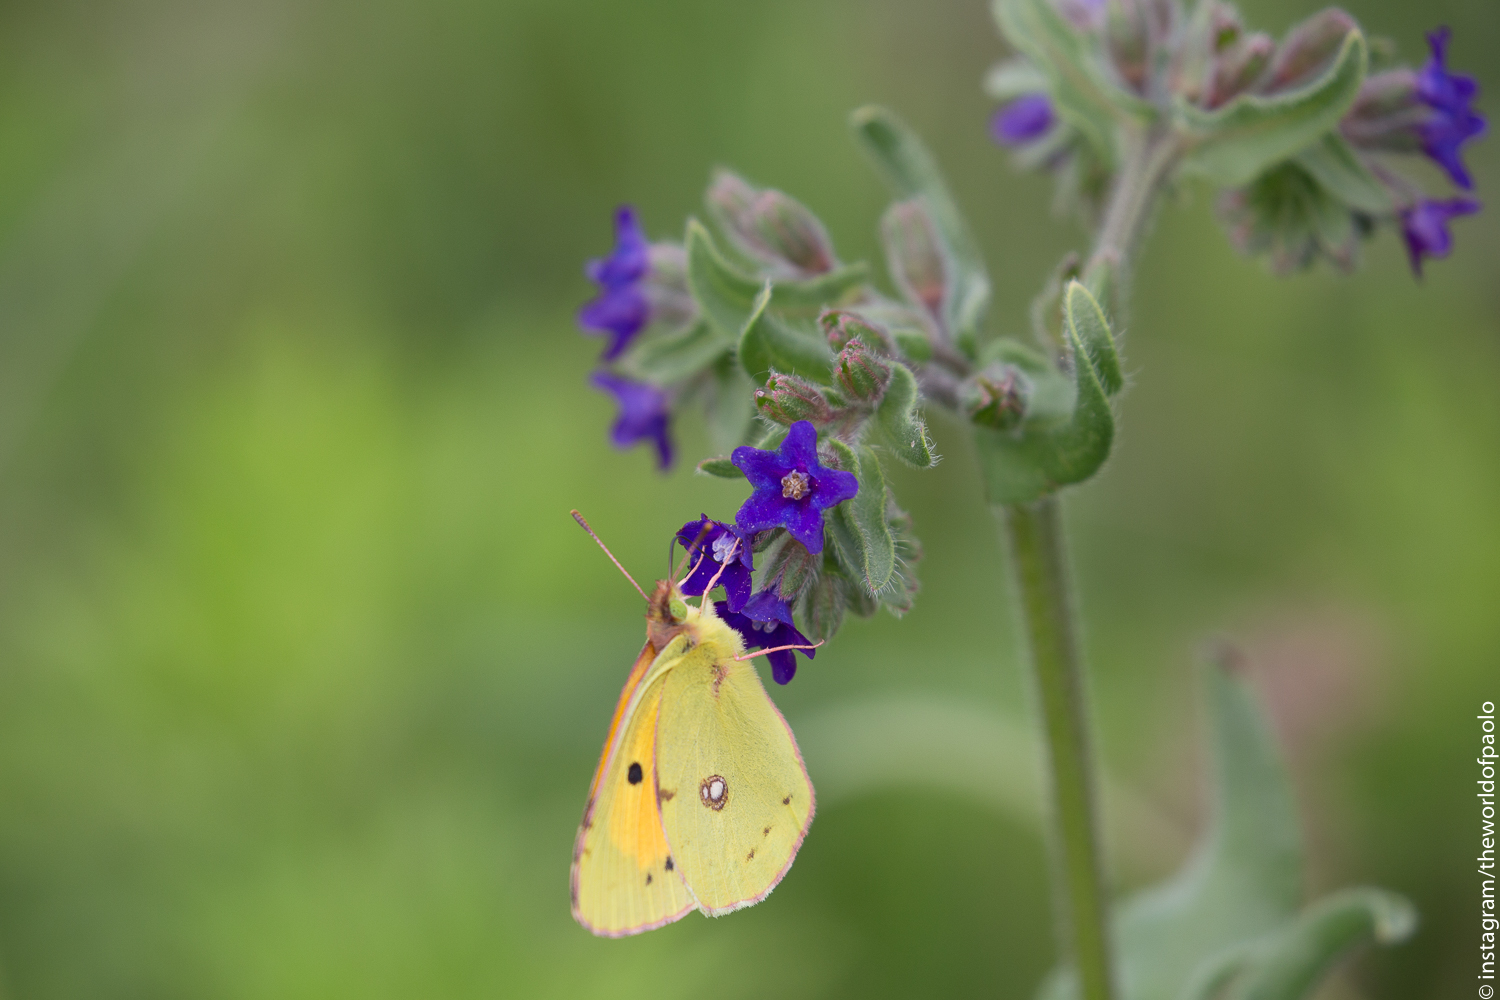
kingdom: Animalia
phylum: Arthropoda
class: Insecta
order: Lepidoptera
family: Pieridae
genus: Colias
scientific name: Colias croceus
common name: Clouded yellow
